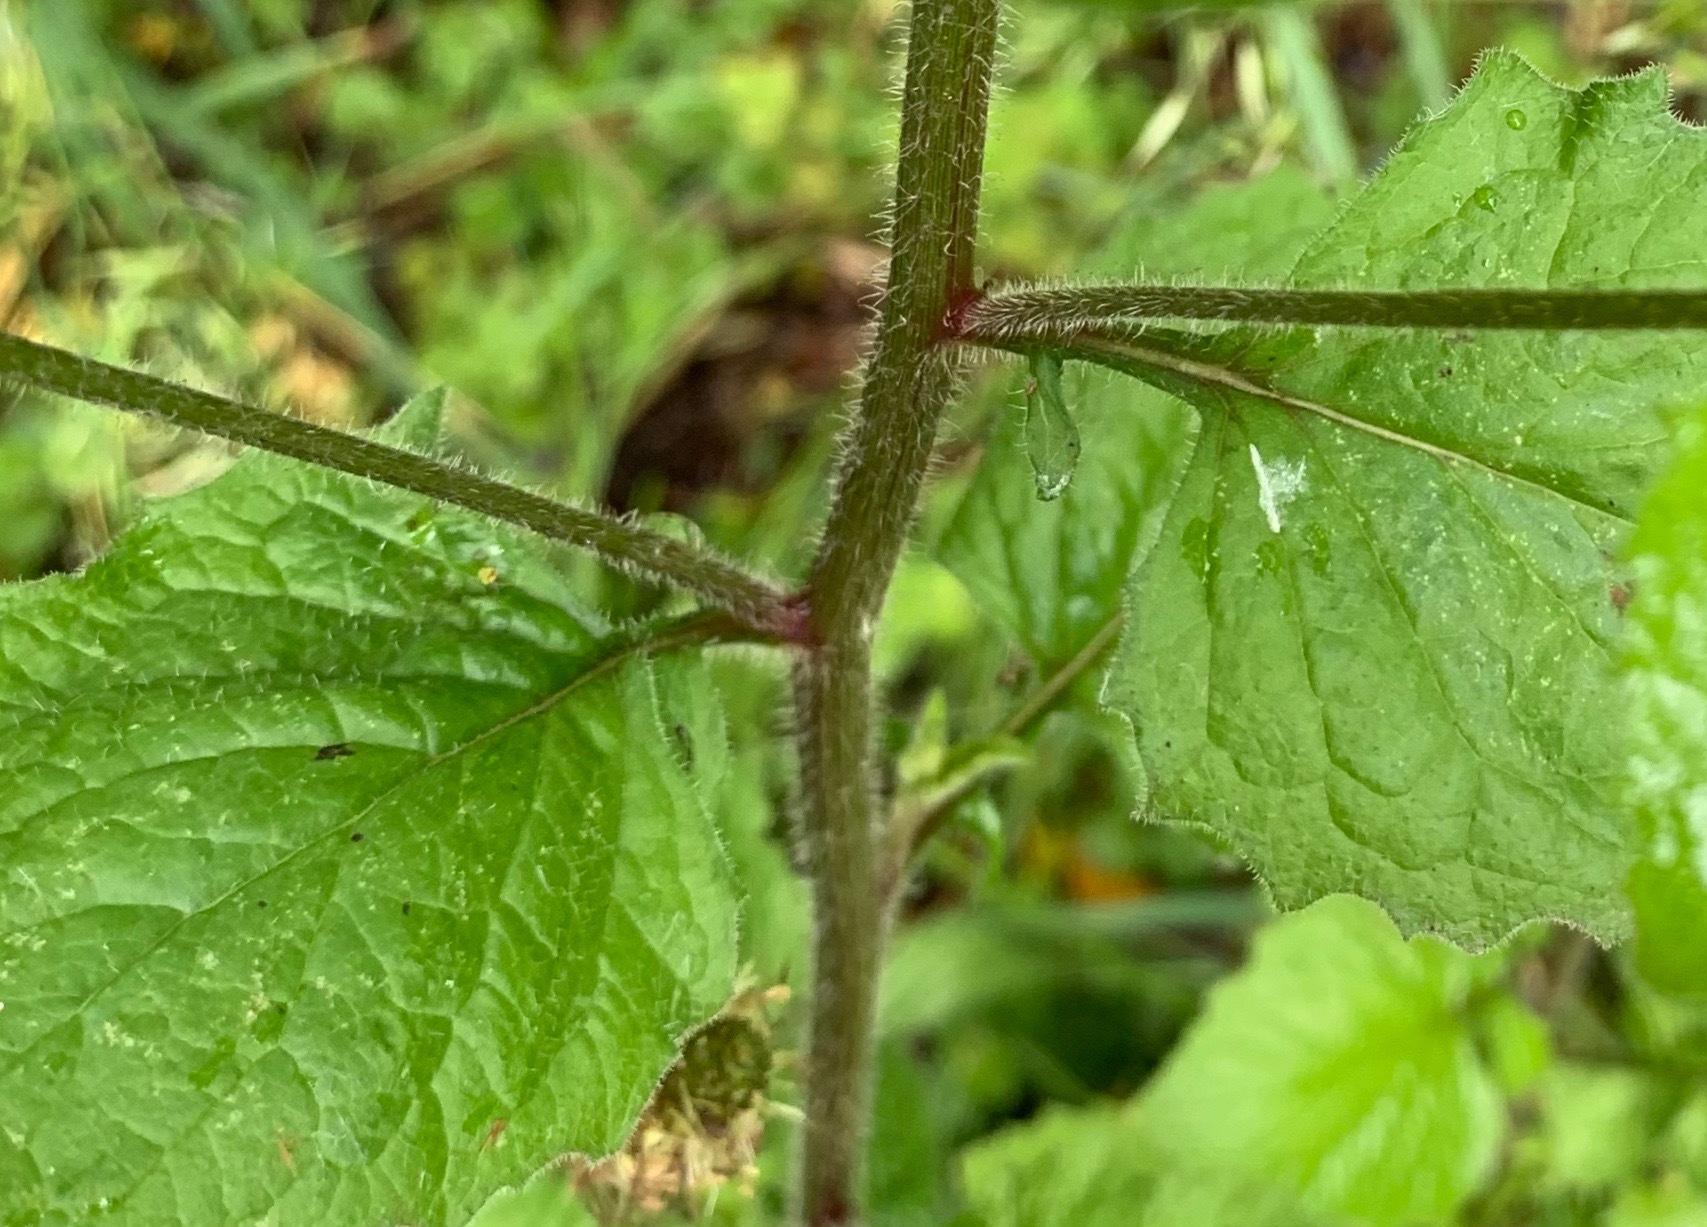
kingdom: Plantae
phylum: Tracheophyta
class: Magnoliopsida
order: Asterales
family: Asteraceae
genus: Lapsana
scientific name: Lapsana communis
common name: Nipplewort
